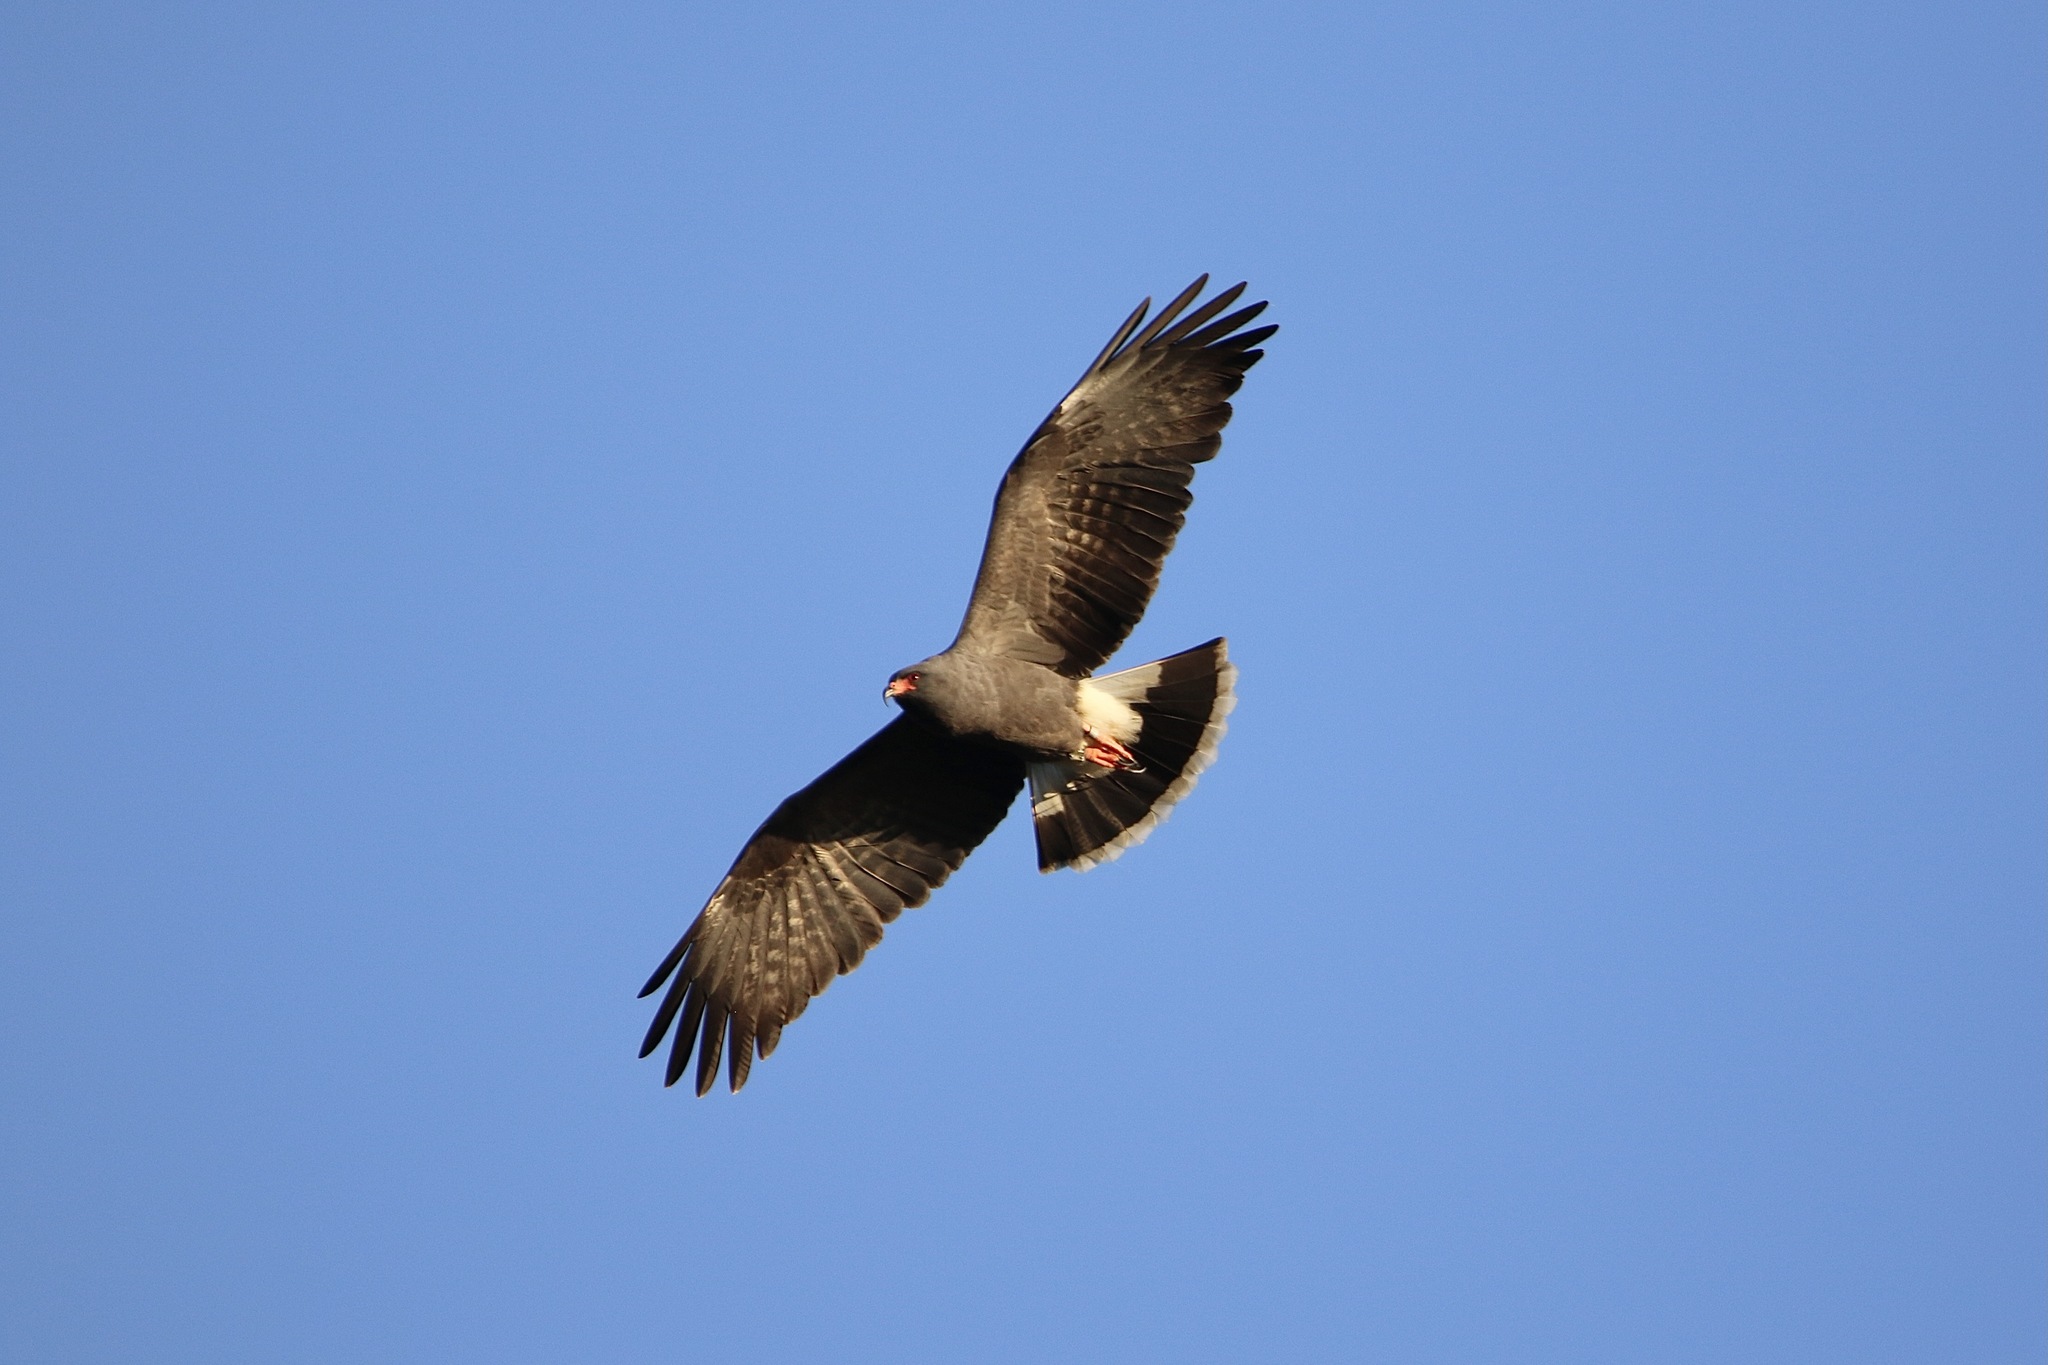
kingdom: Animalia
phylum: Chordata
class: Aves
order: Accipitriformes
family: Accipitridae
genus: Rostrhamus
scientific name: Rostrhamus sociabilis
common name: Snail kite
